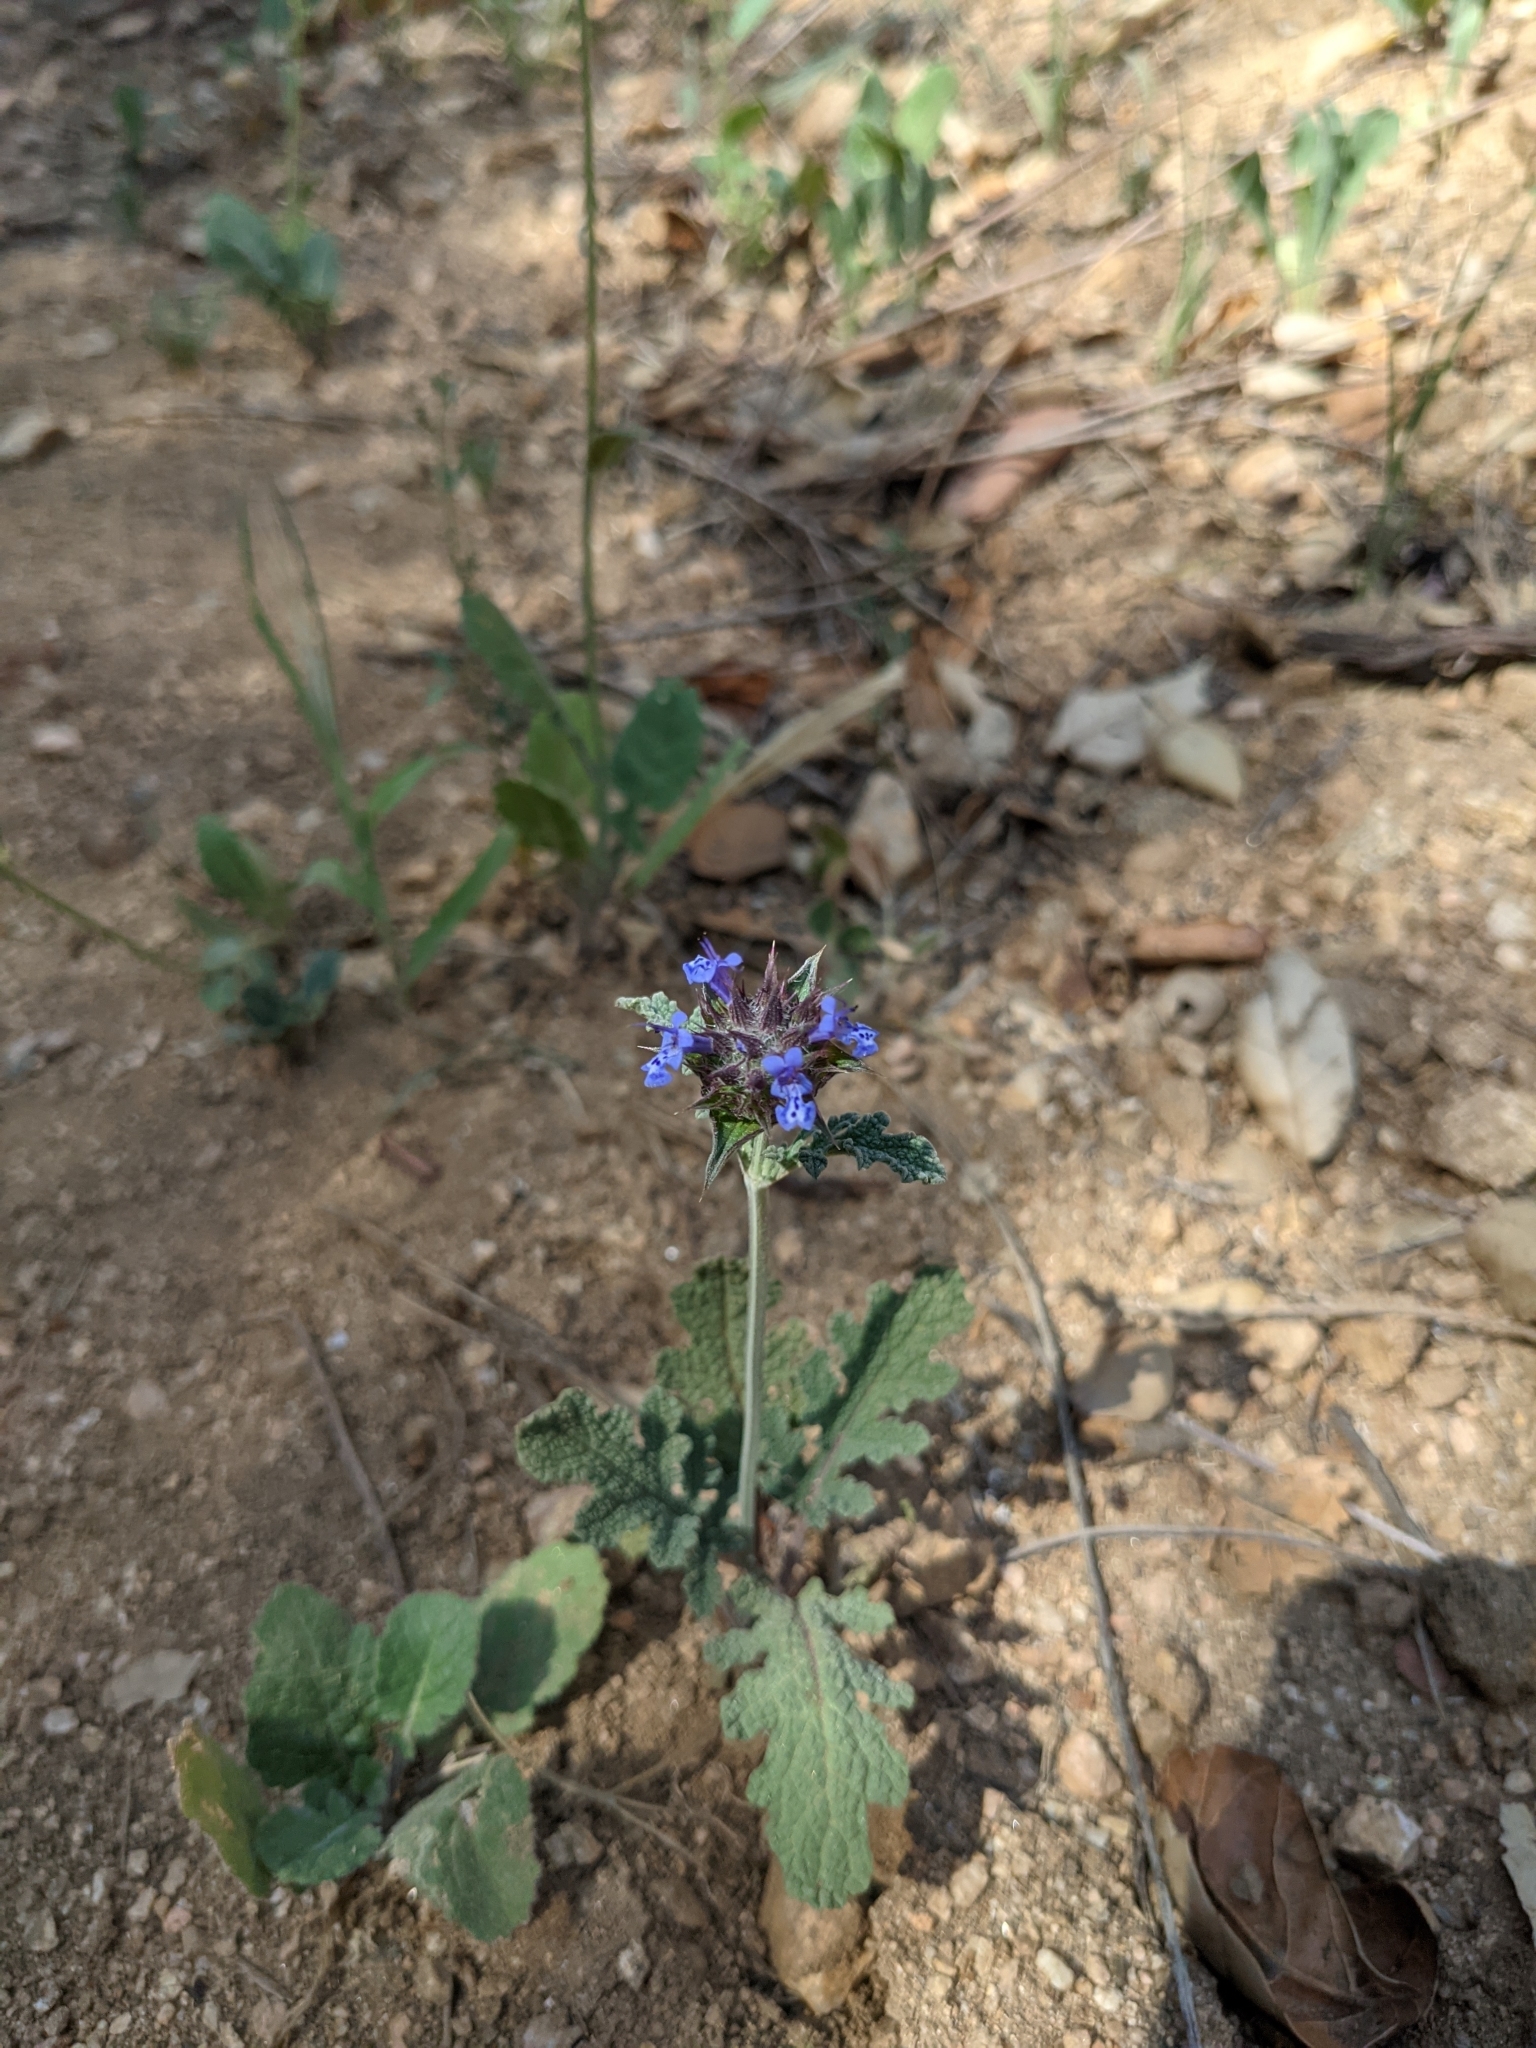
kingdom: Plantae
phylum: Tracheophyta
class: Magnoliopsida
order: Lamiales
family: Lamiaceae
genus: Salvia
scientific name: Salvia columbariae
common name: Chia
